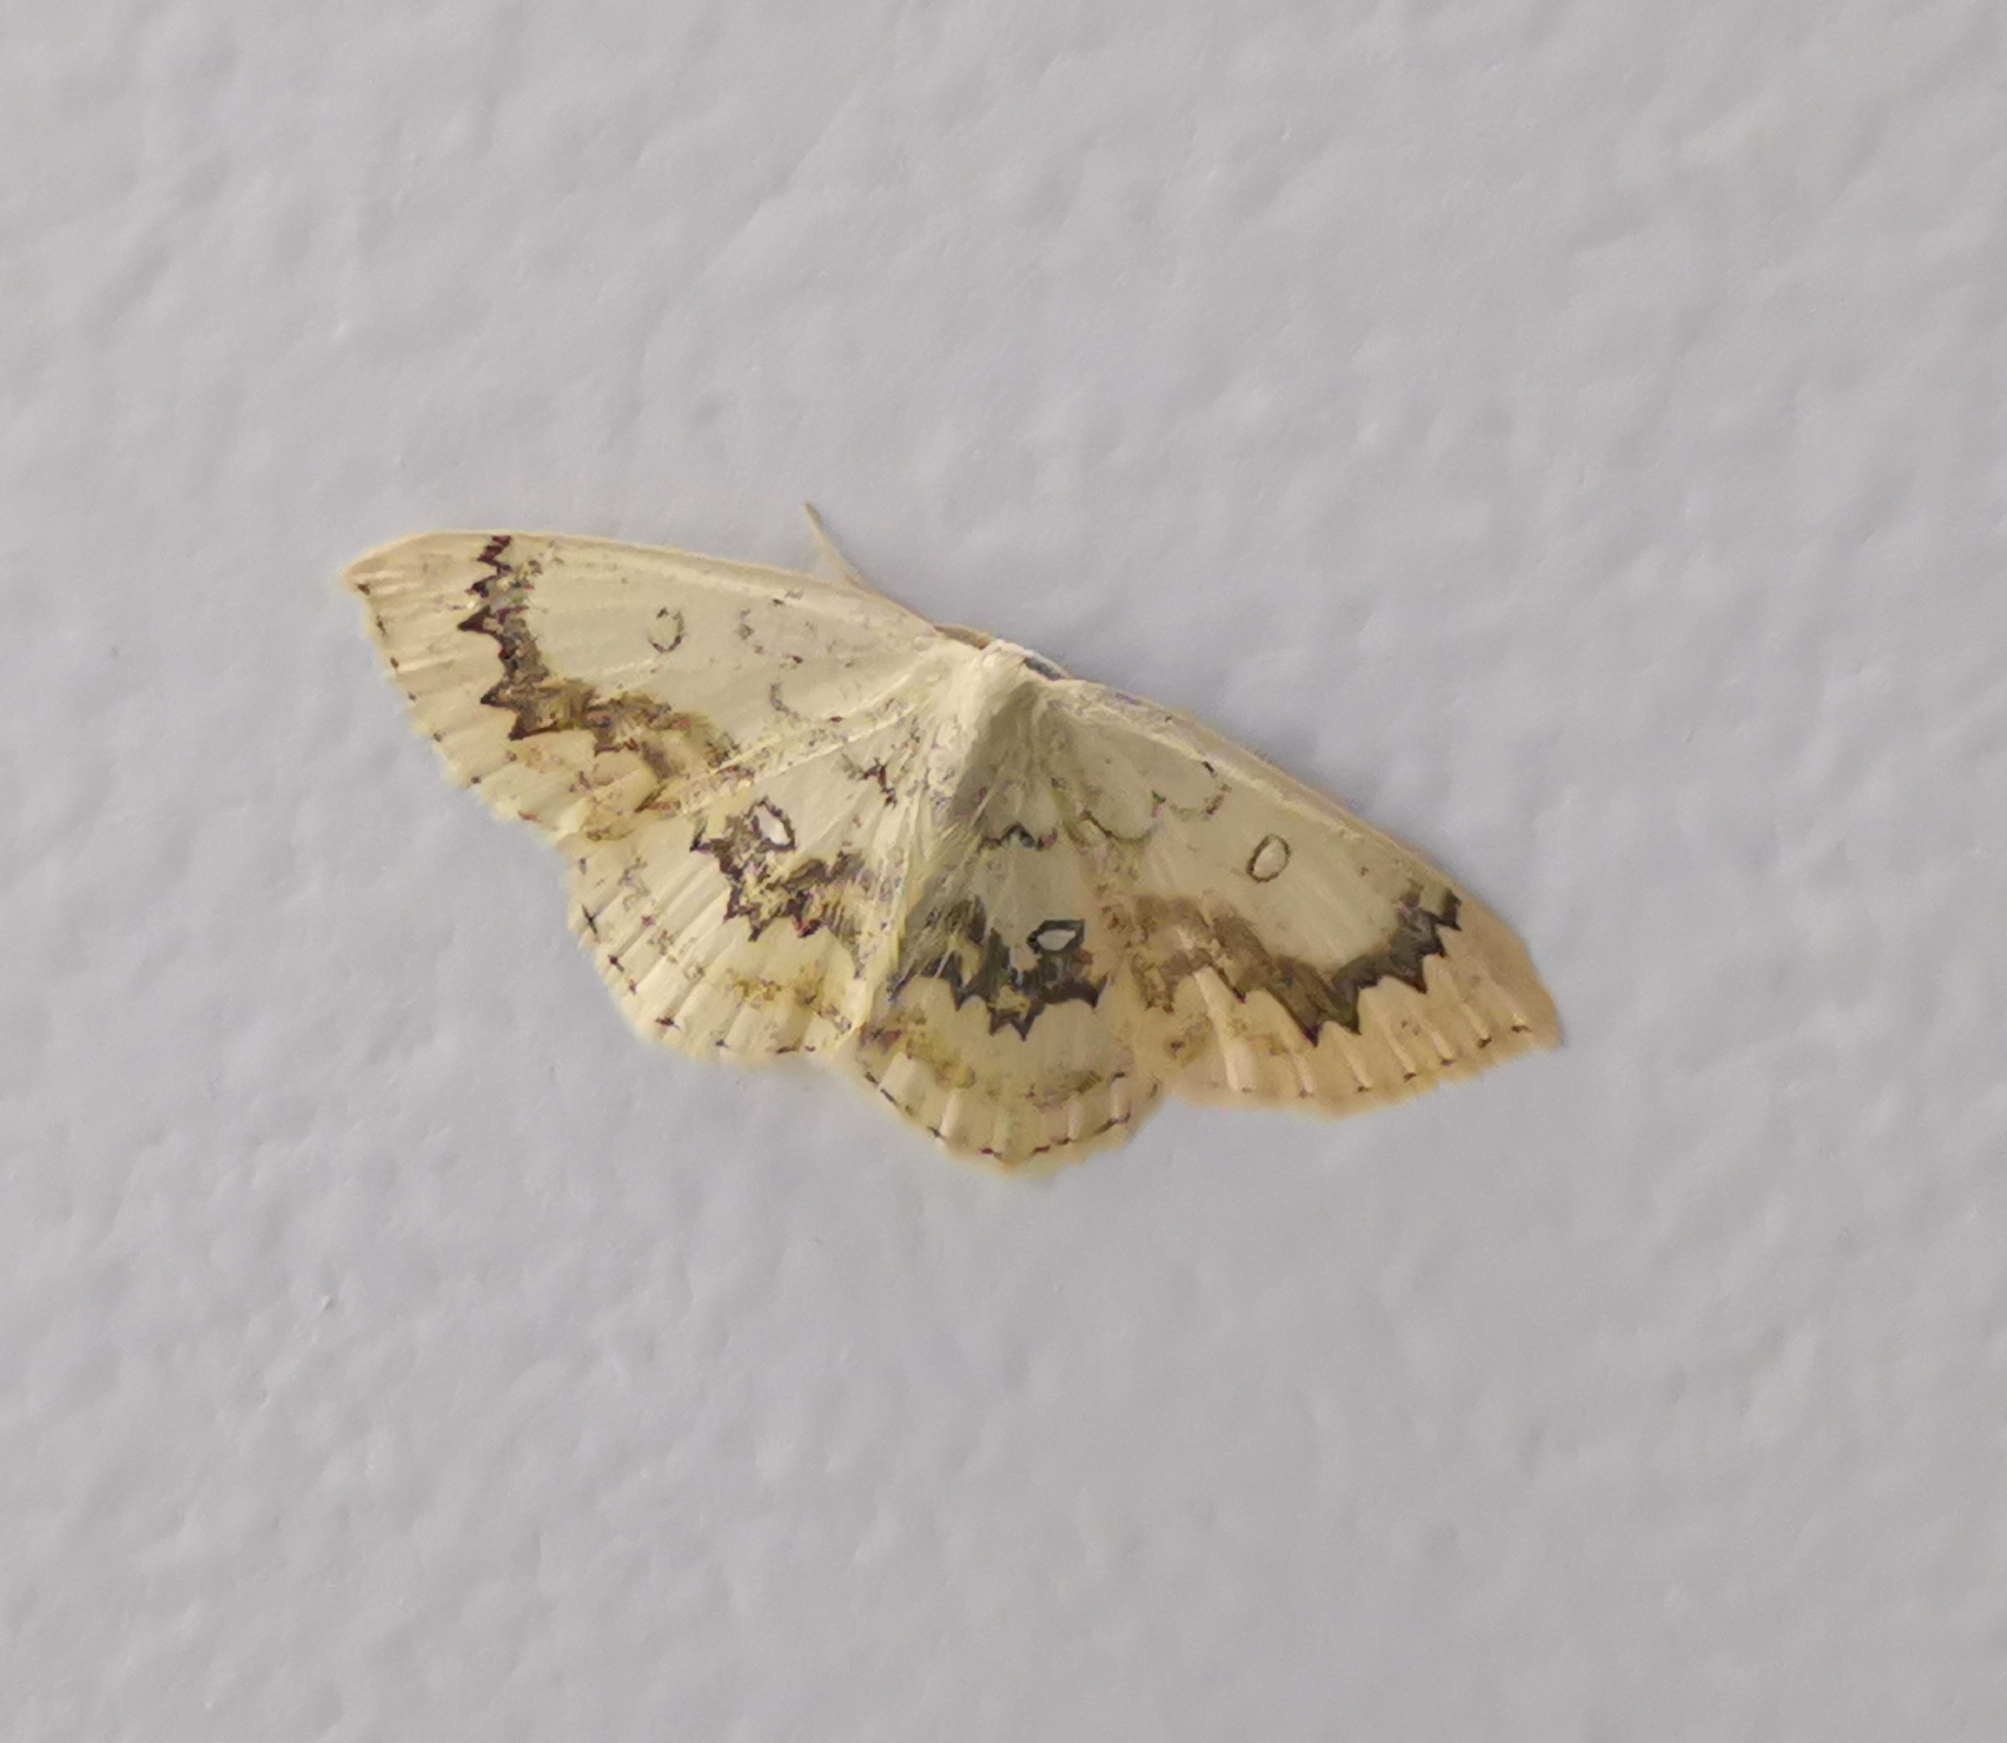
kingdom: Animalia
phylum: Arthropoda
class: Insecta
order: Lepidoptera
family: Geometridae
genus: Cyclophora
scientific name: Cyclophora annularia
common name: Mocha
